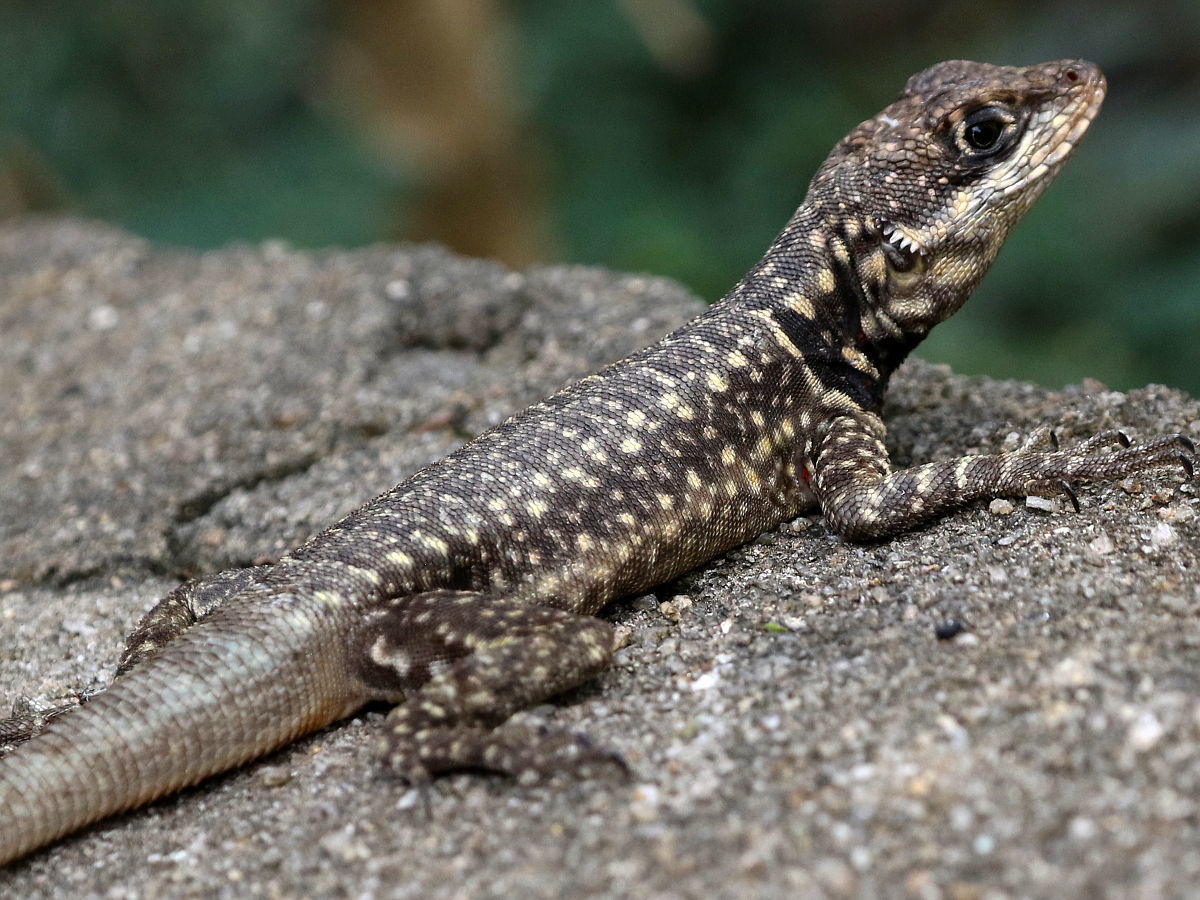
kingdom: Animalia
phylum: Chordata
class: Squamata
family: Tropiduridae
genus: Tropidurus
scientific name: Tropidurus torquatus
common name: Amazon lava lizard
